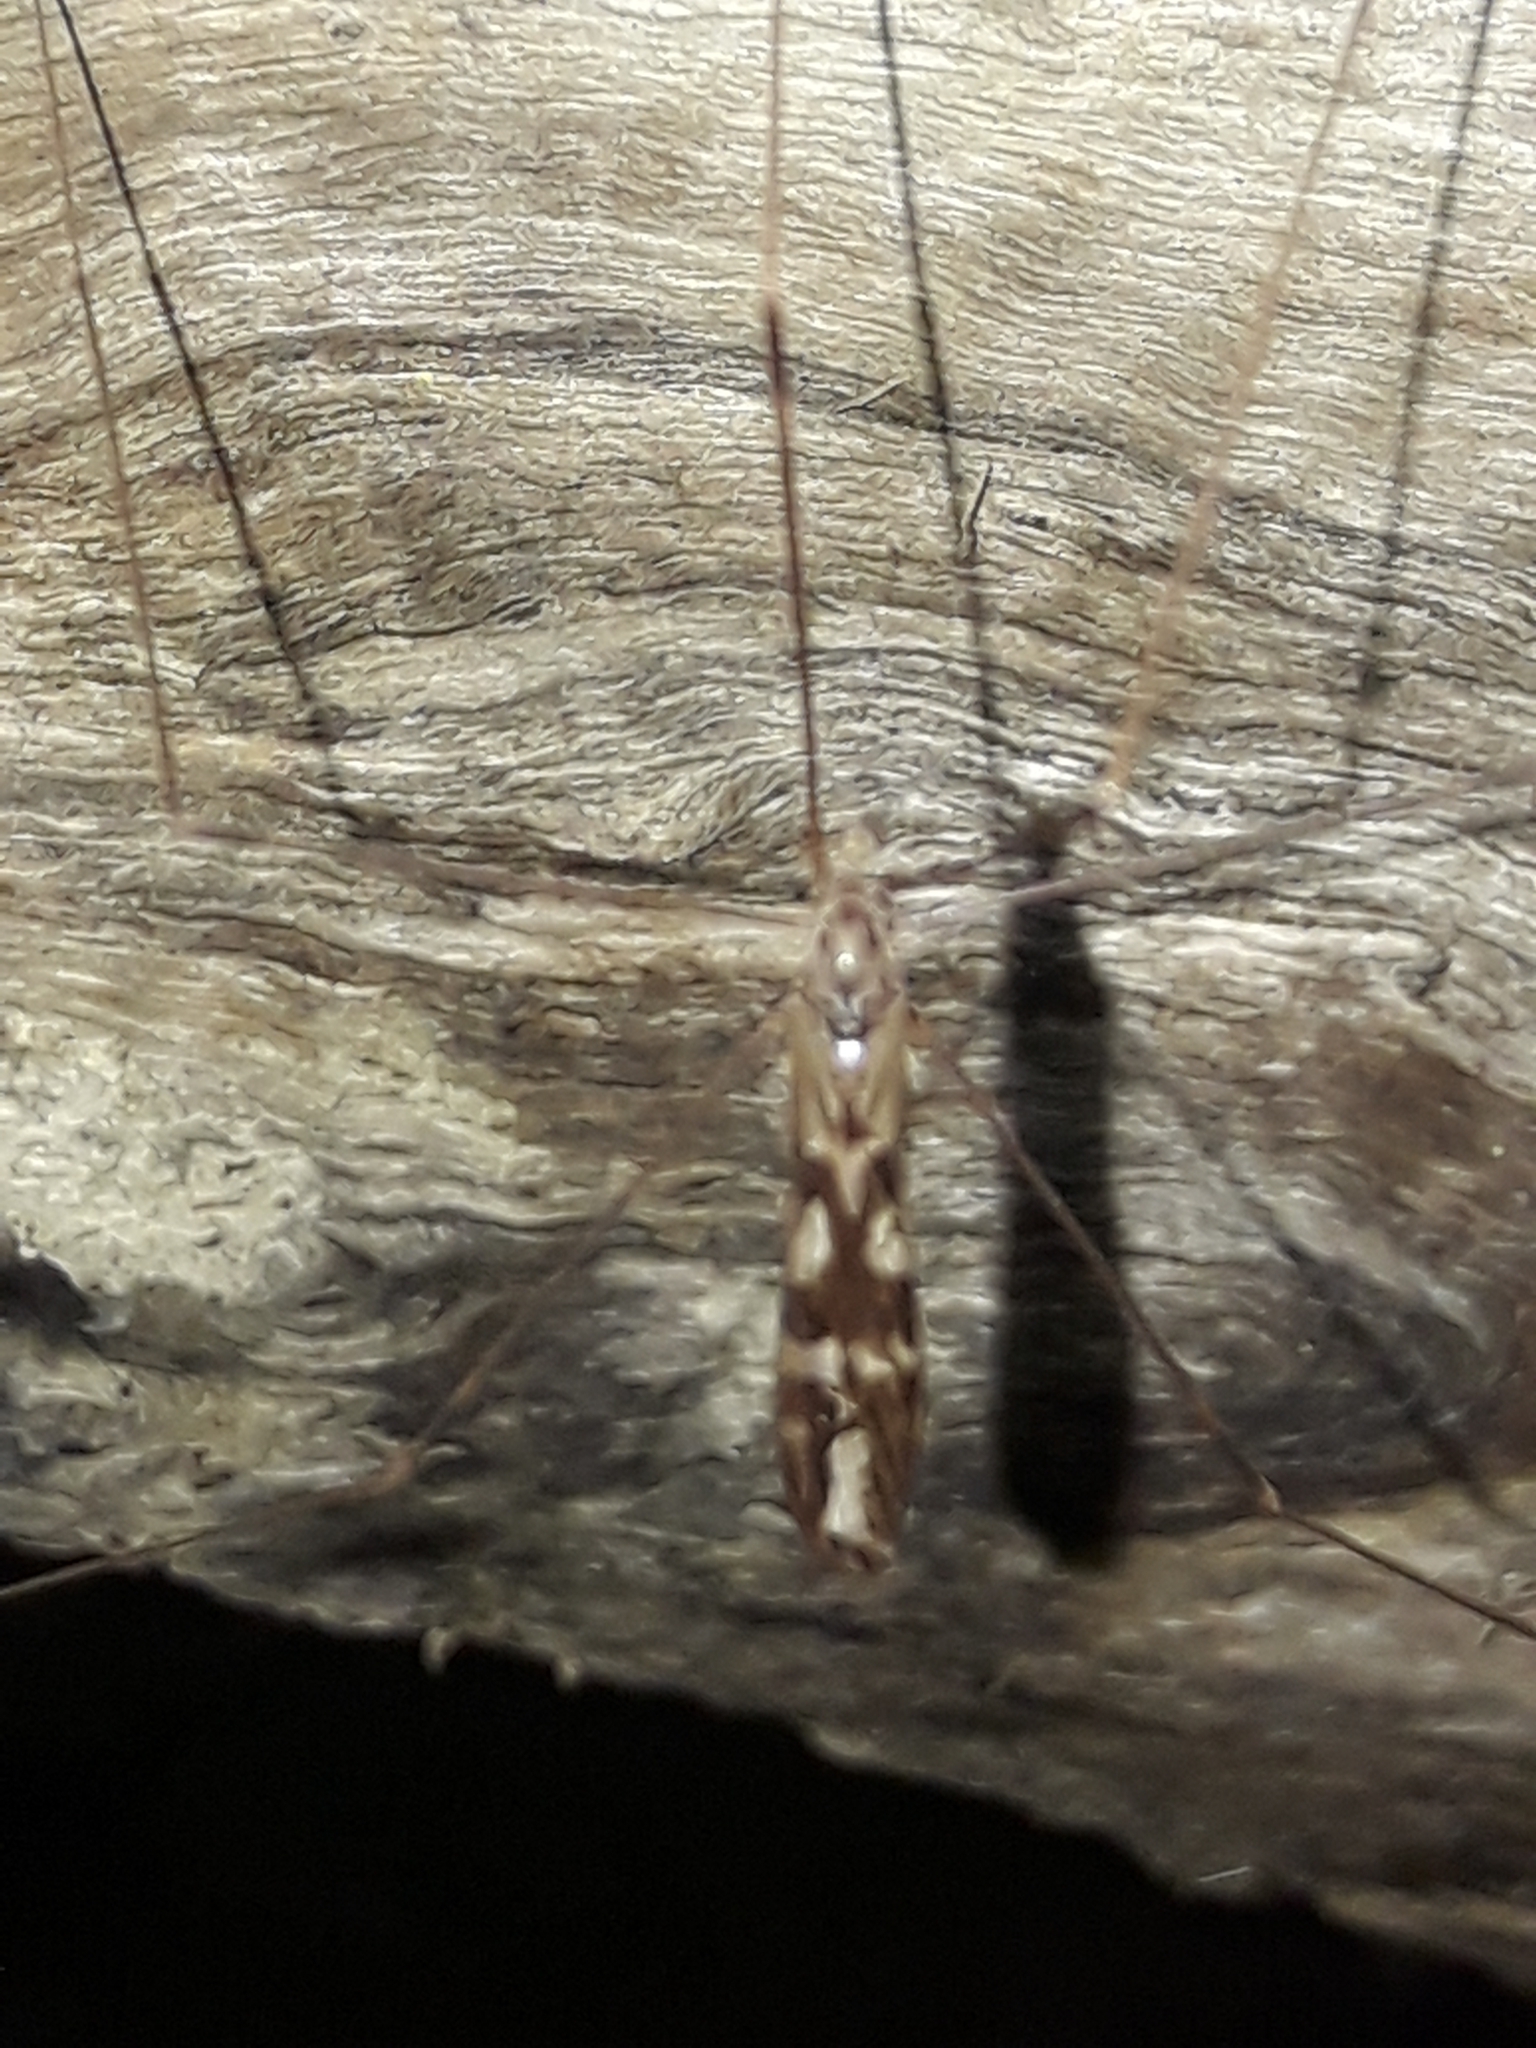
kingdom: Animalia
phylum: Arthropoda
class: Insecta
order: Diptera
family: Limoniidae
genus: Discobola
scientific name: Discobola dohrni
